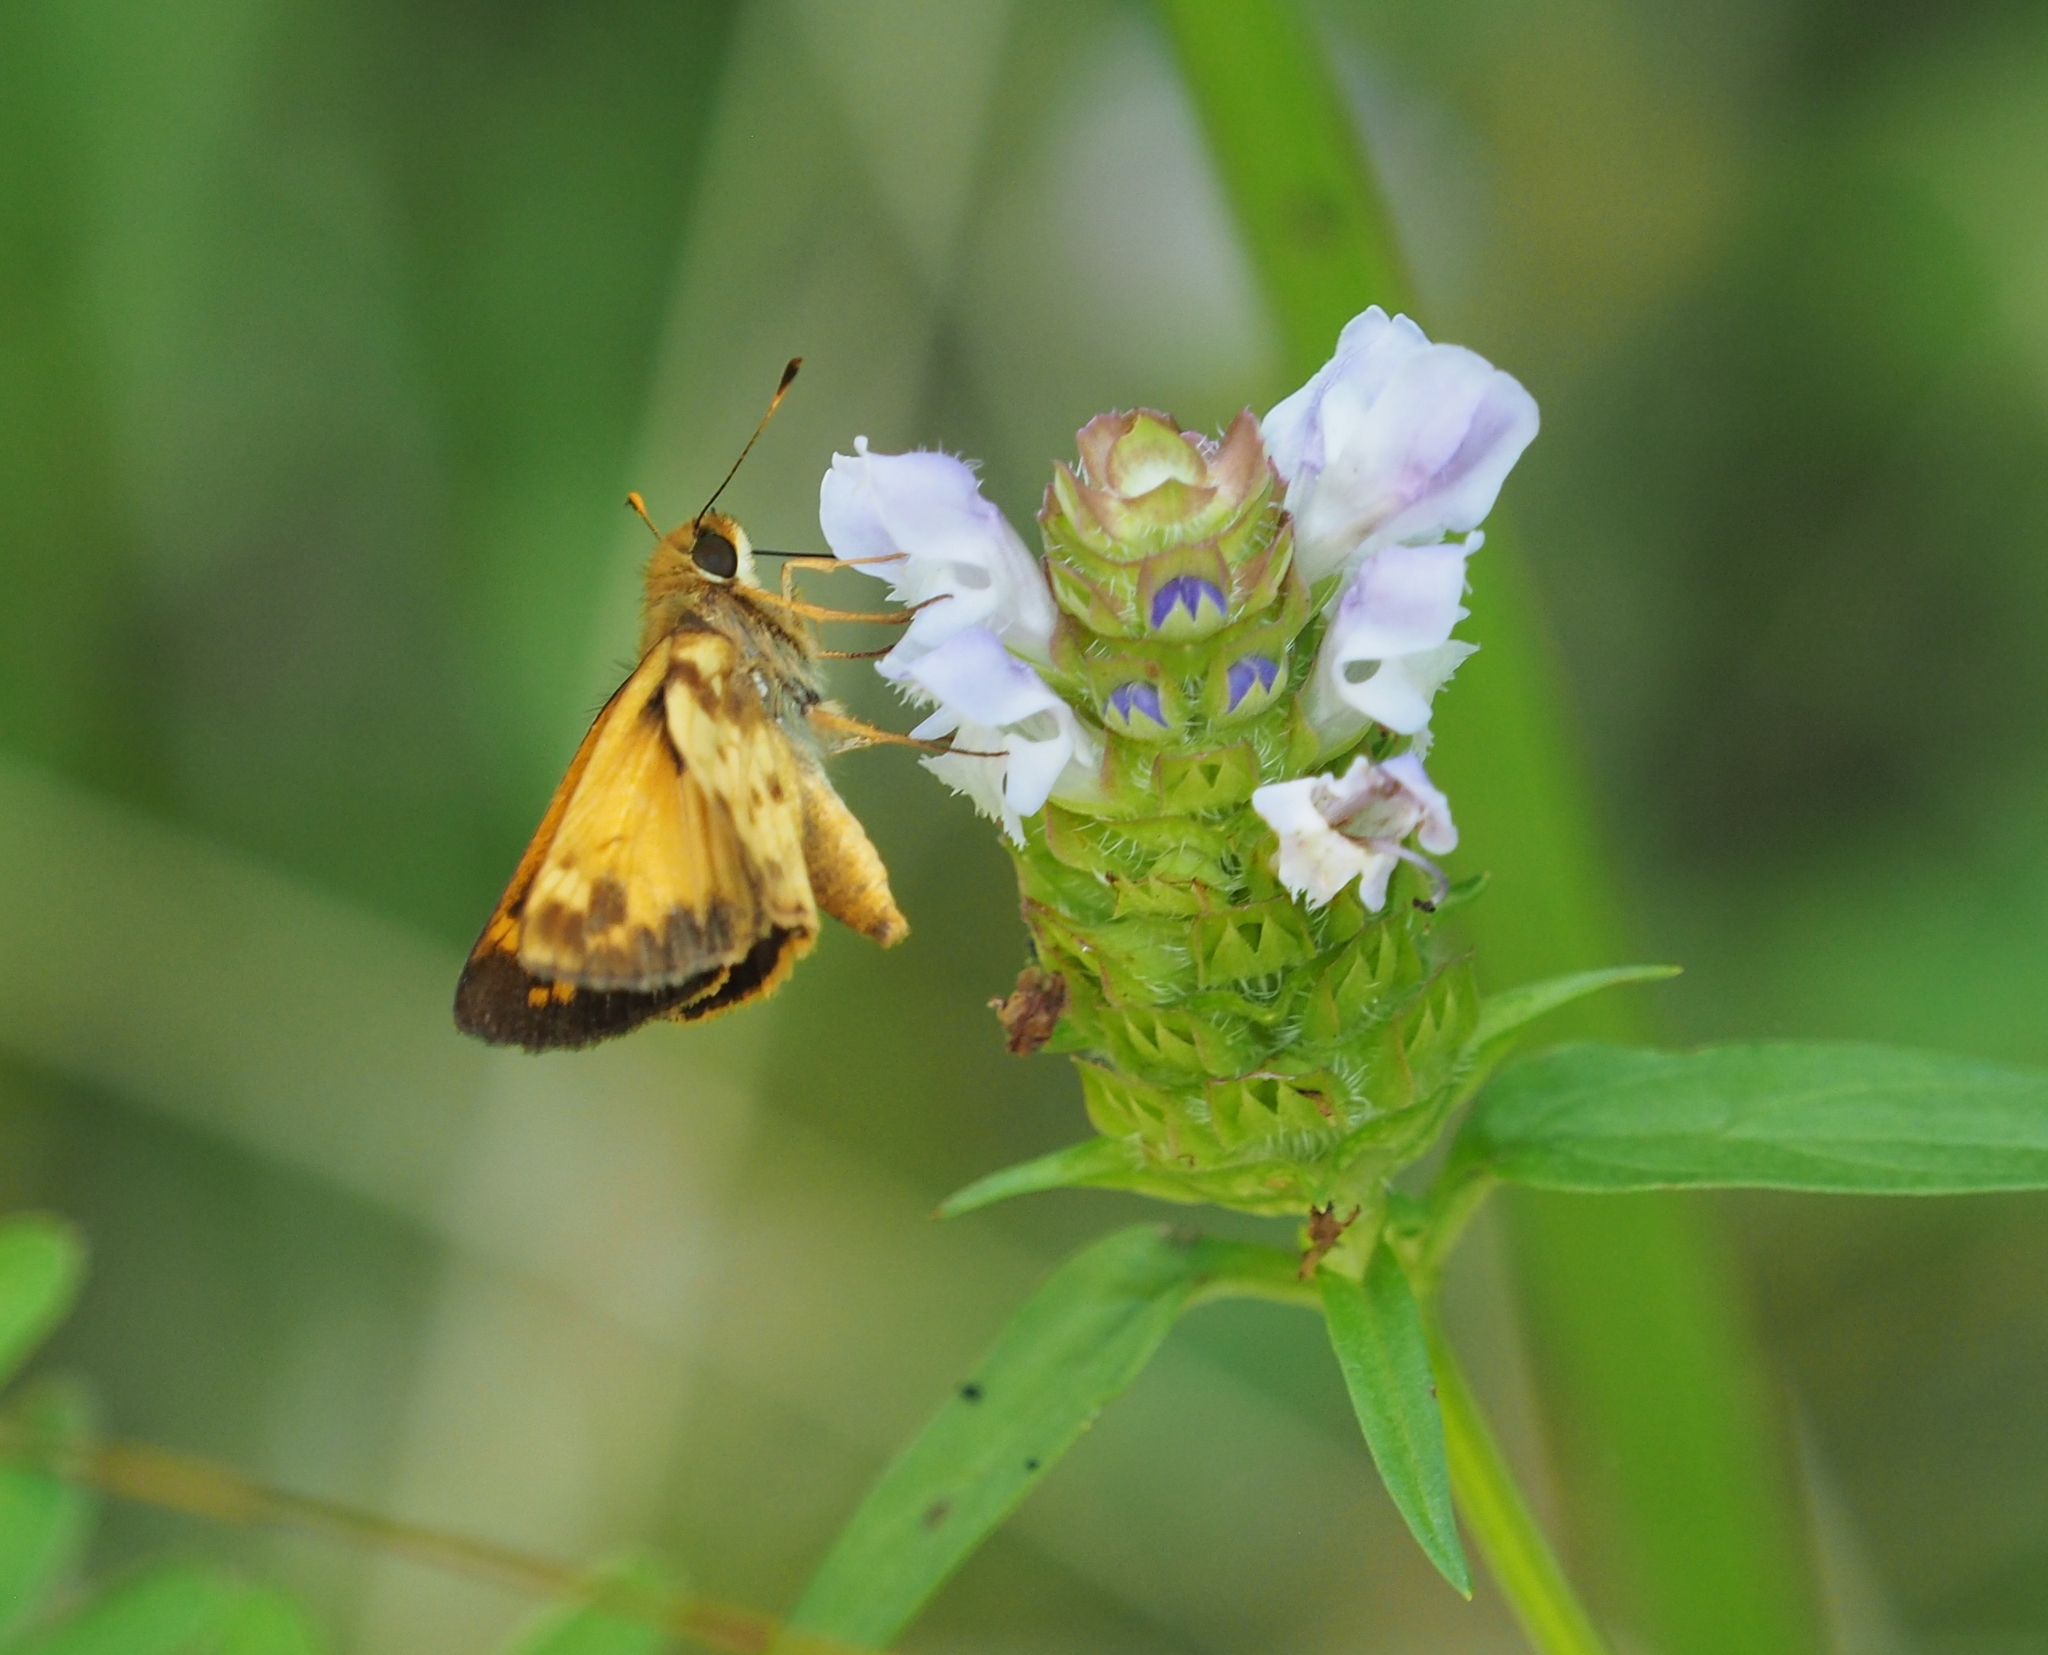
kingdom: Animalia
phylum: Arthropoda
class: Insecta
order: Lepidoptera
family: Hesperiidae
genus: Lon
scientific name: Lon zabulon
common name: Zabulon skipper
